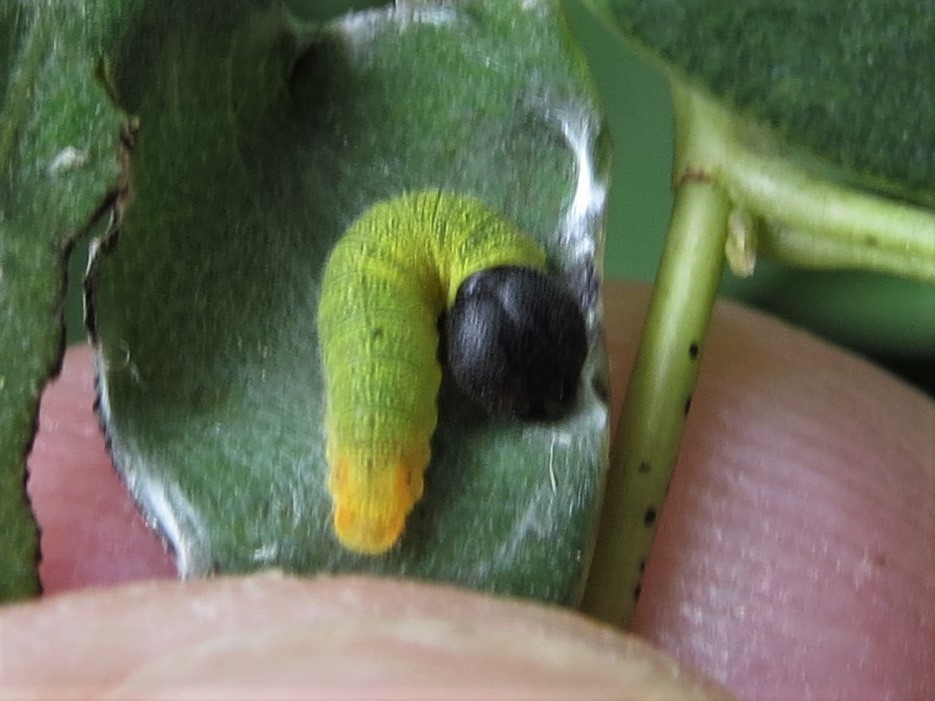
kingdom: Animalia
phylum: Arthropoda
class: Insecta
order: Lepidoptera
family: Hesperiidae
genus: Erynnis
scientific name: Erynnis baptisiae
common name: Wild indigo duskywing
